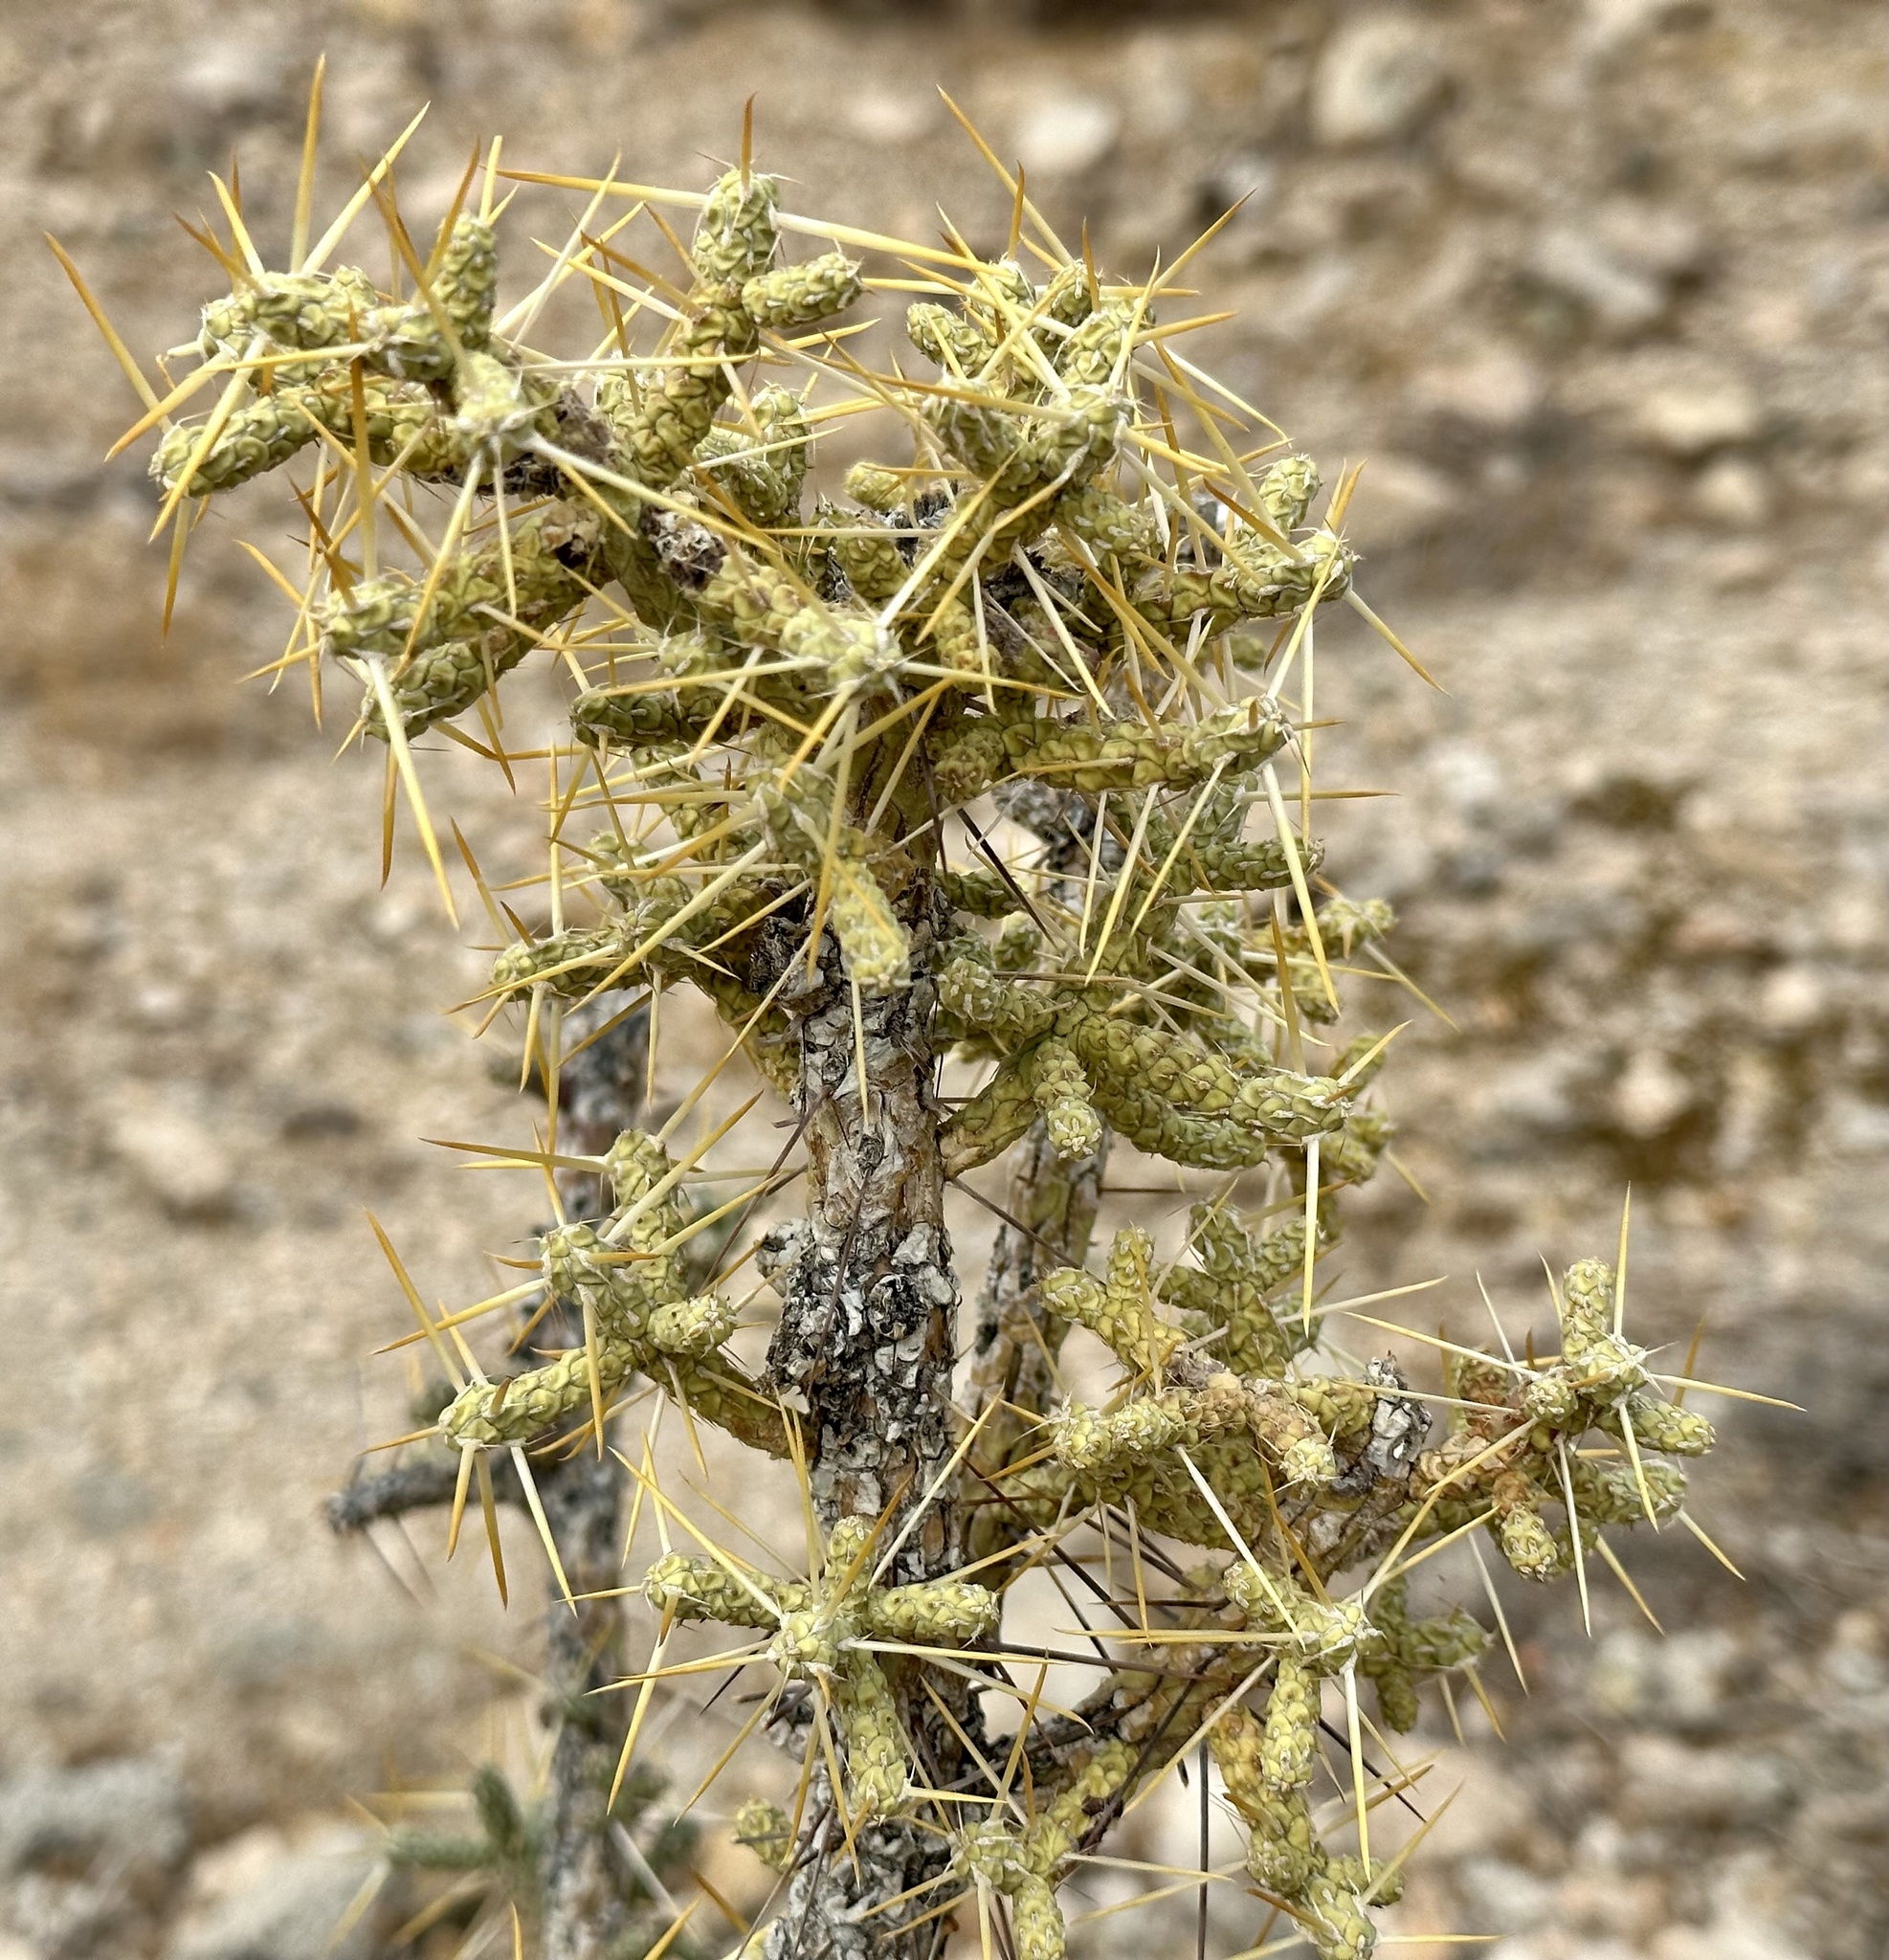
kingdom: Plantae
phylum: Tracheophyta
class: Magnoliopsida
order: Caryophyllales
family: Cactaceae
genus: Cylindropuntia
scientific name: Cylindropuntia ramosissima
